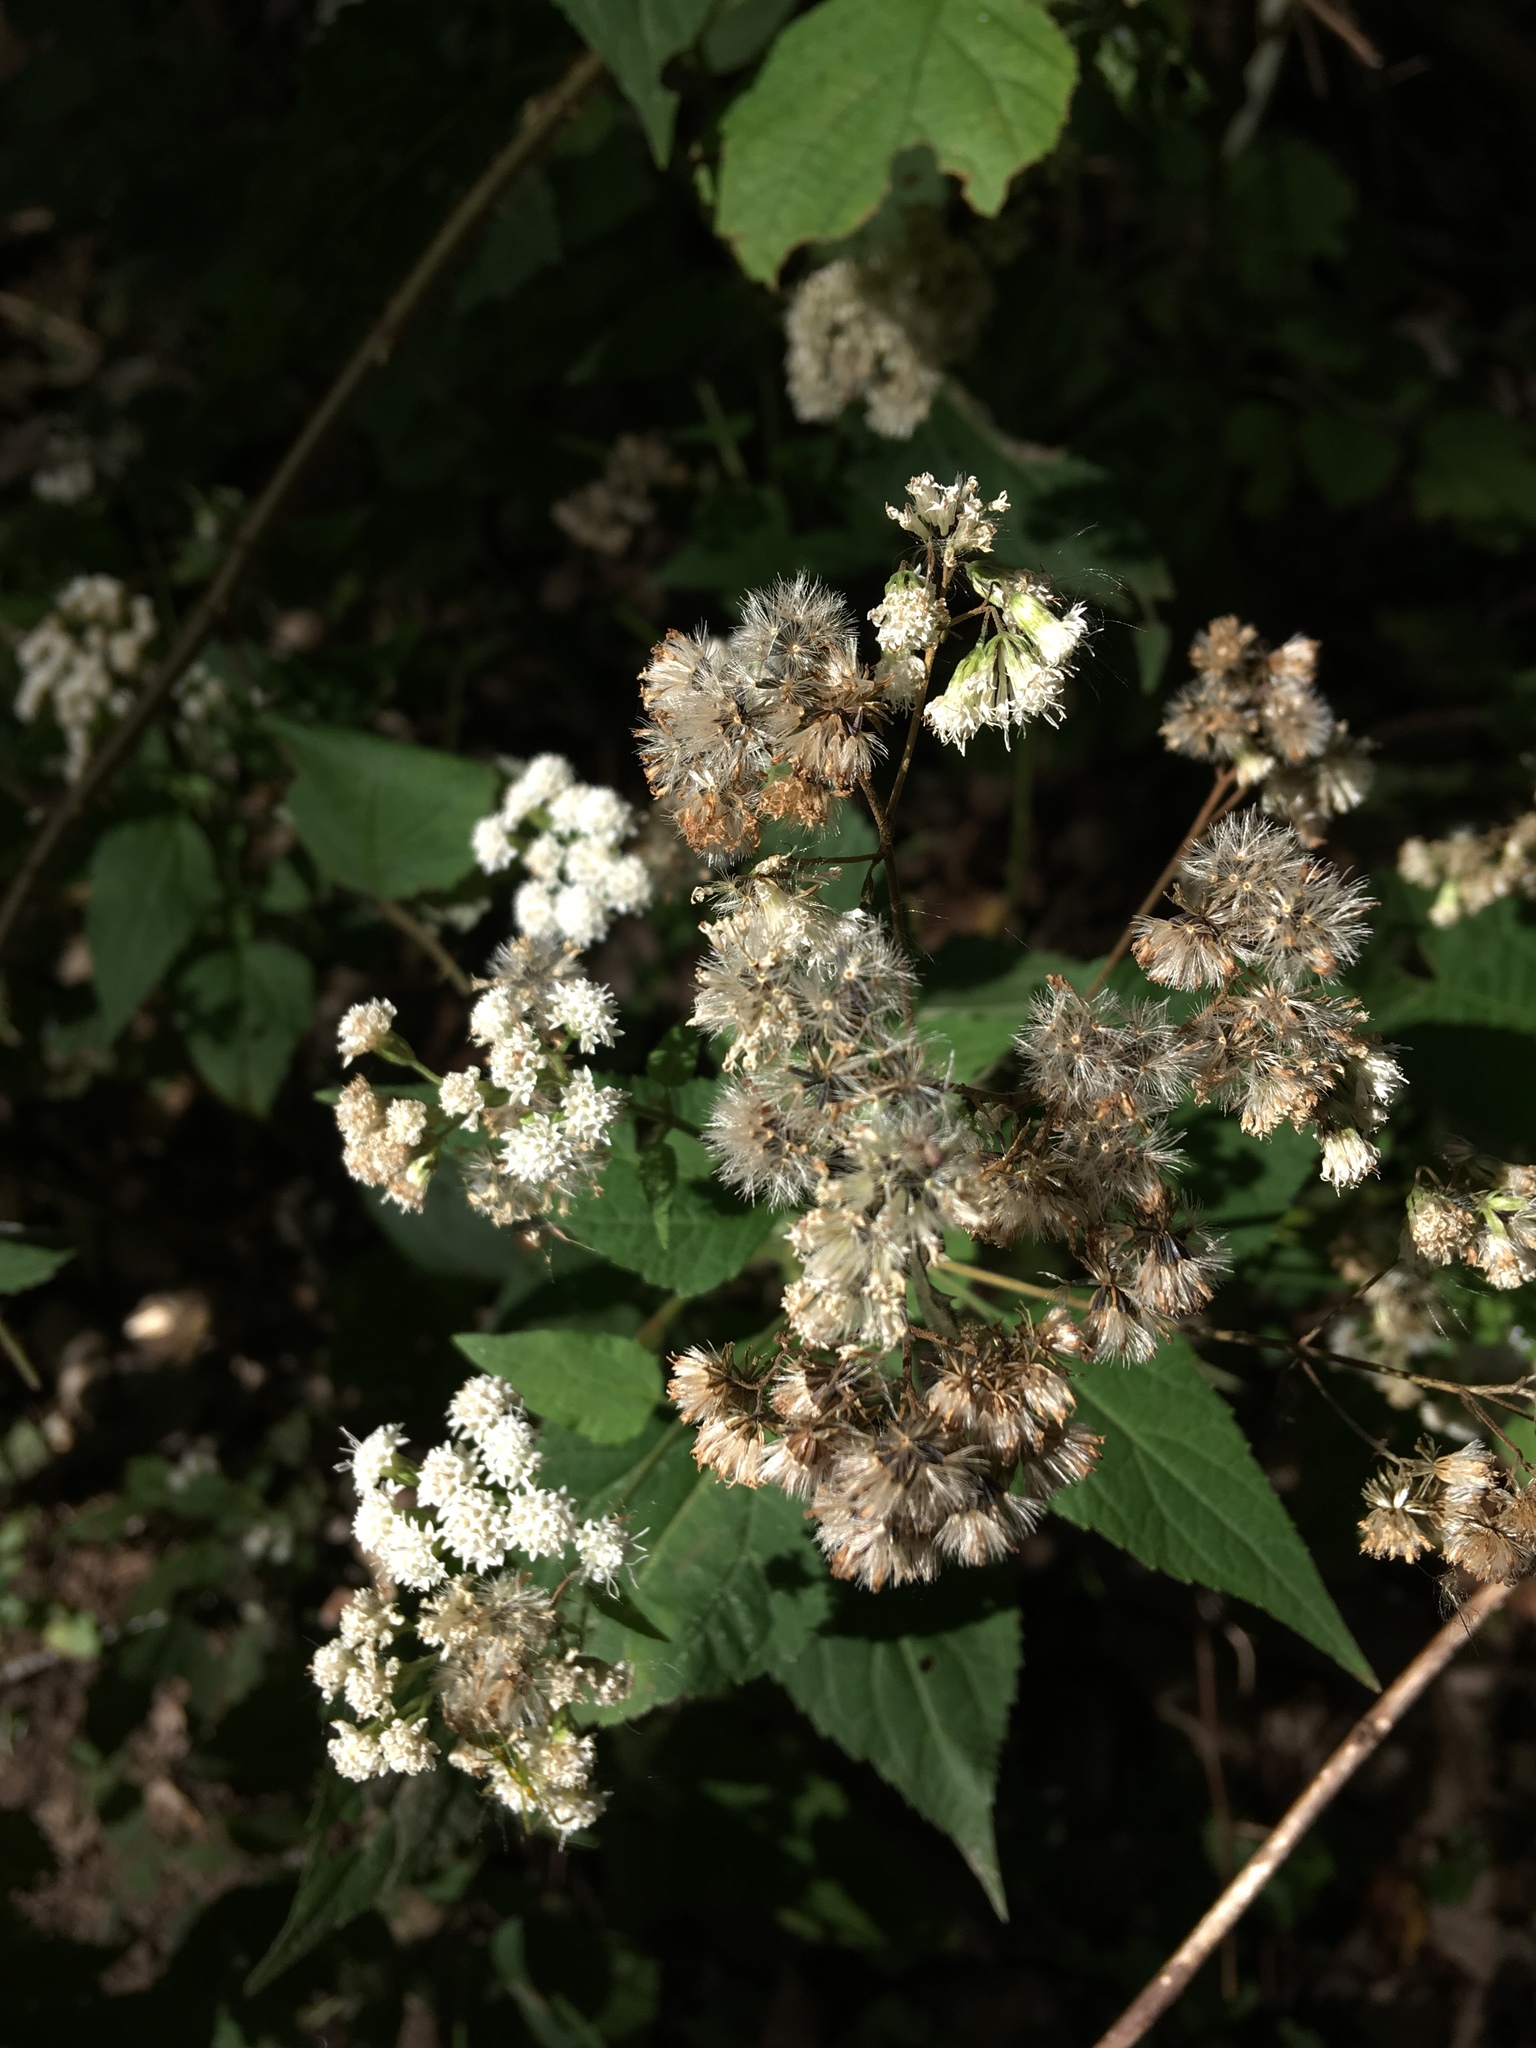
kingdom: Plantae
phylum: Tracheophyta
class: Magnoliopsida
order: Asterales
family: Asteraceae
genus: Ageratina
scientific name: Ageratina altissima
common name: White snakeroot
